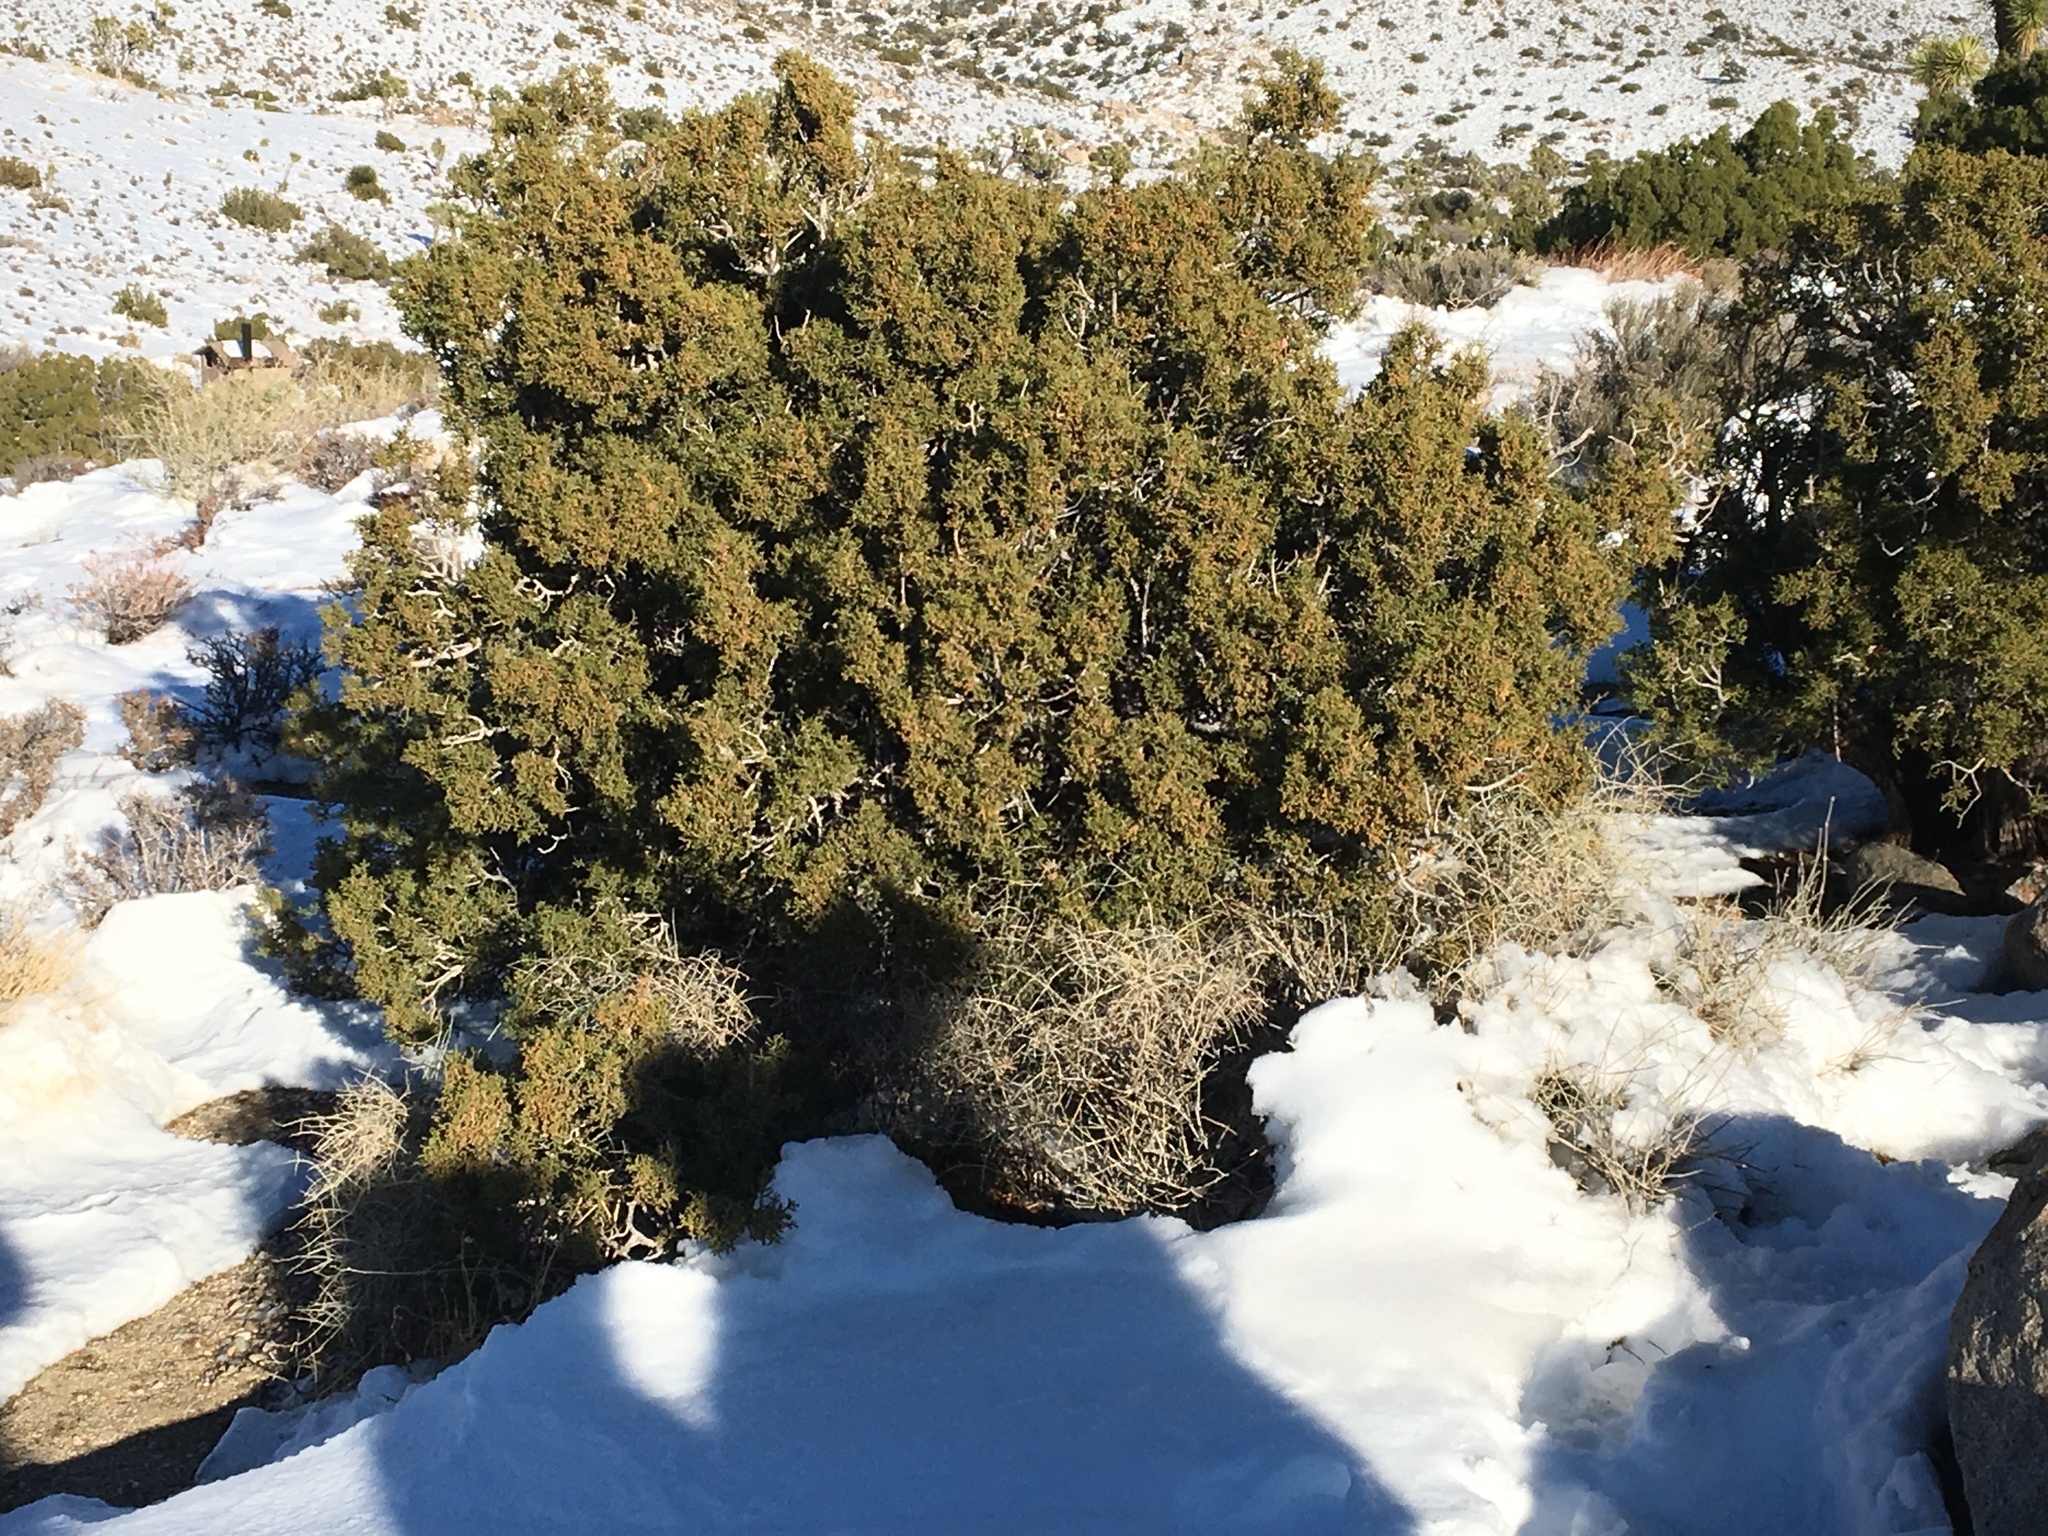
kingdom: Plantae
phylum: Tracheophyta
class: Pinopsida
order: Pinales
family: Cupressaceae
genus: Juniperus
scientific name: Juniperus californica
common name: California juniper
